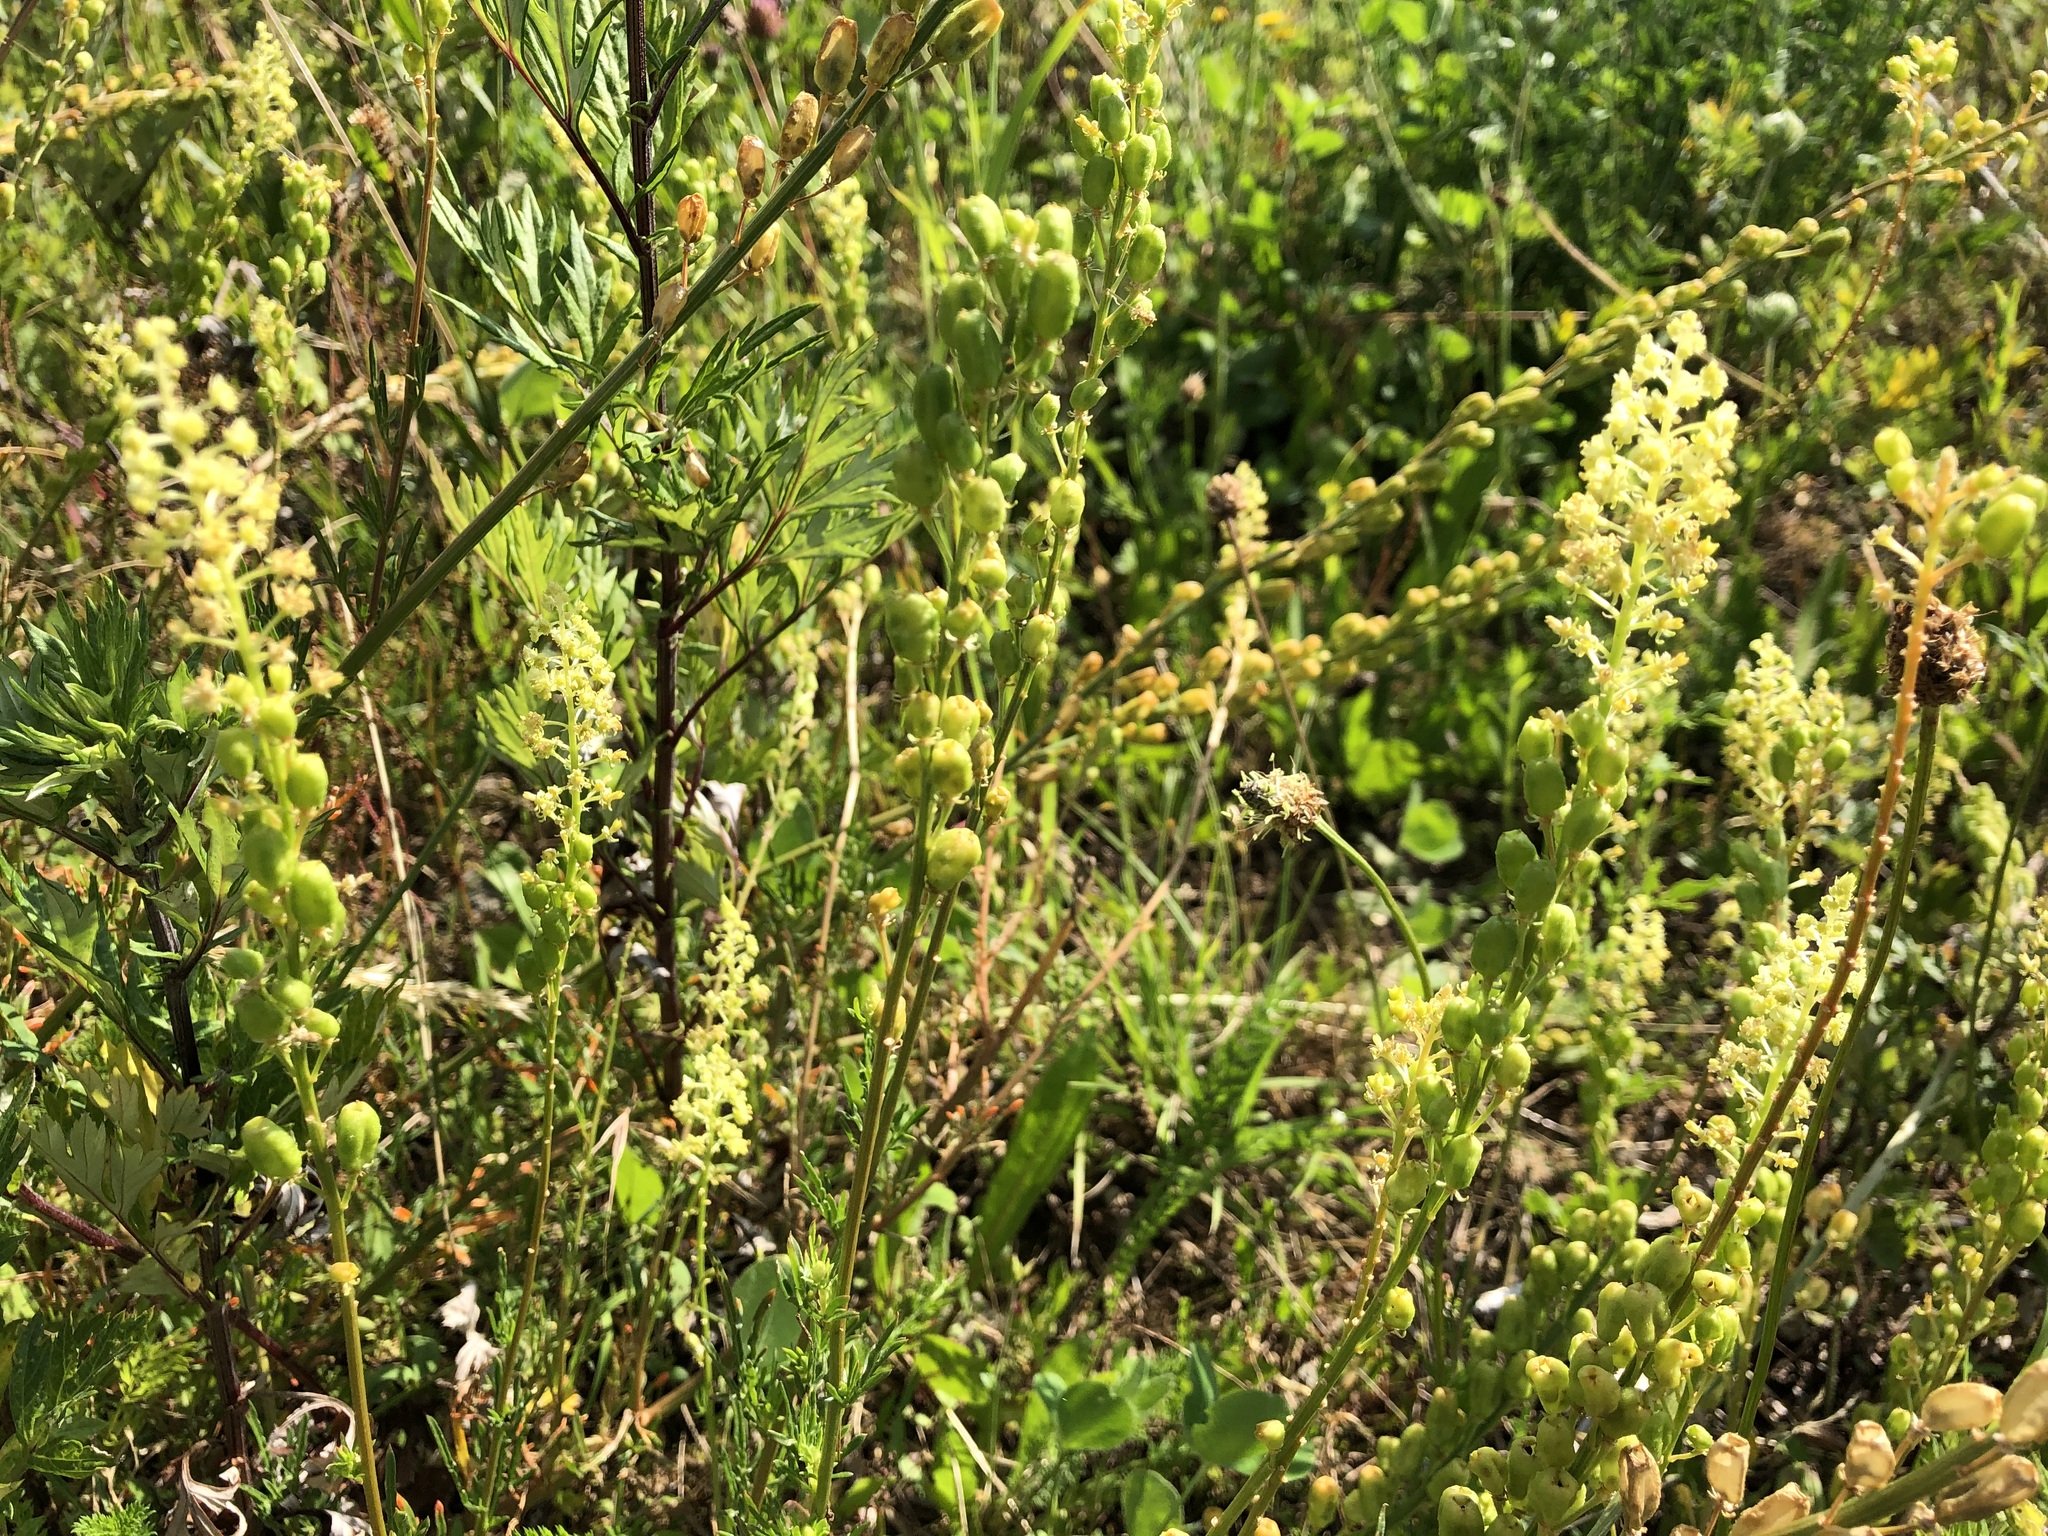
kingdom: Plantae
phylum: Tracheophyta
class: Magnoliopsida
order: Brassicales
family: Resedaceae
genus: Reseda
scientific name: Reseda lutea
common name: Wild mignonette
